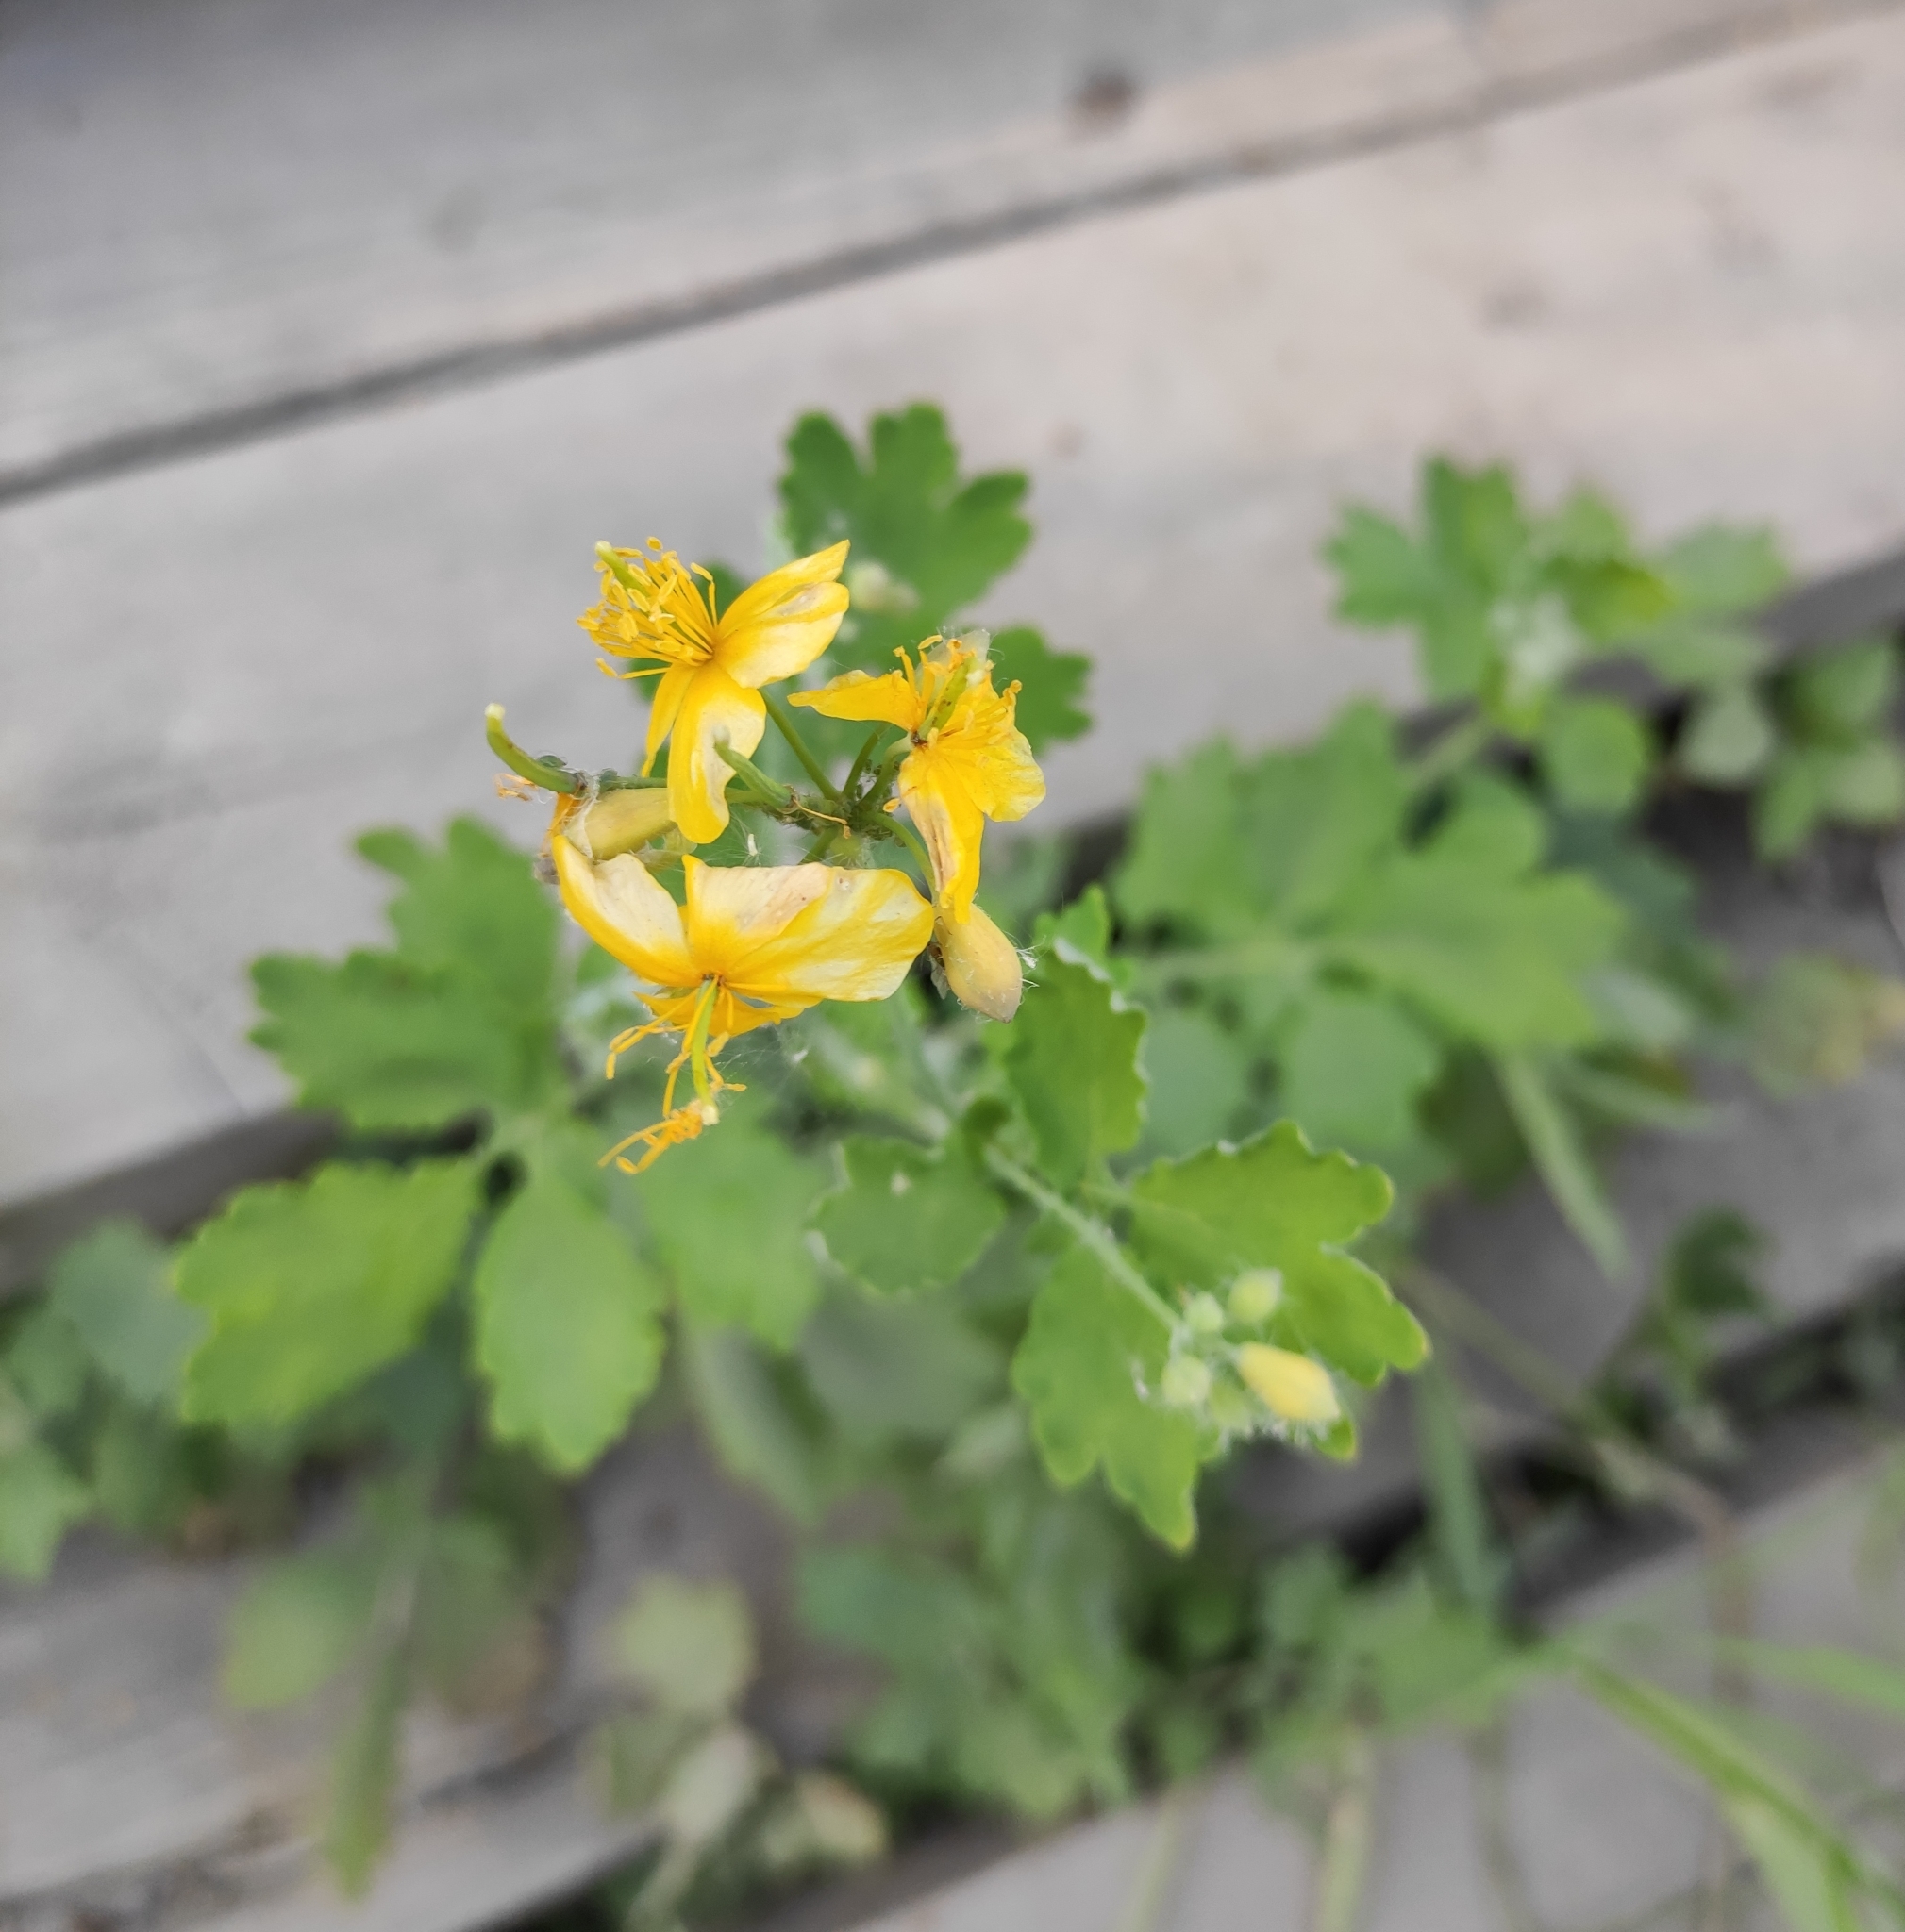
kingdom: Plantae
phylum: Tracheophyta
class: Magnoliopsida
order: Ranunculales
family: Papaveraceae
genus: Chelidonium
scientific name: Chelidonium majus
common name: Greater celandine
